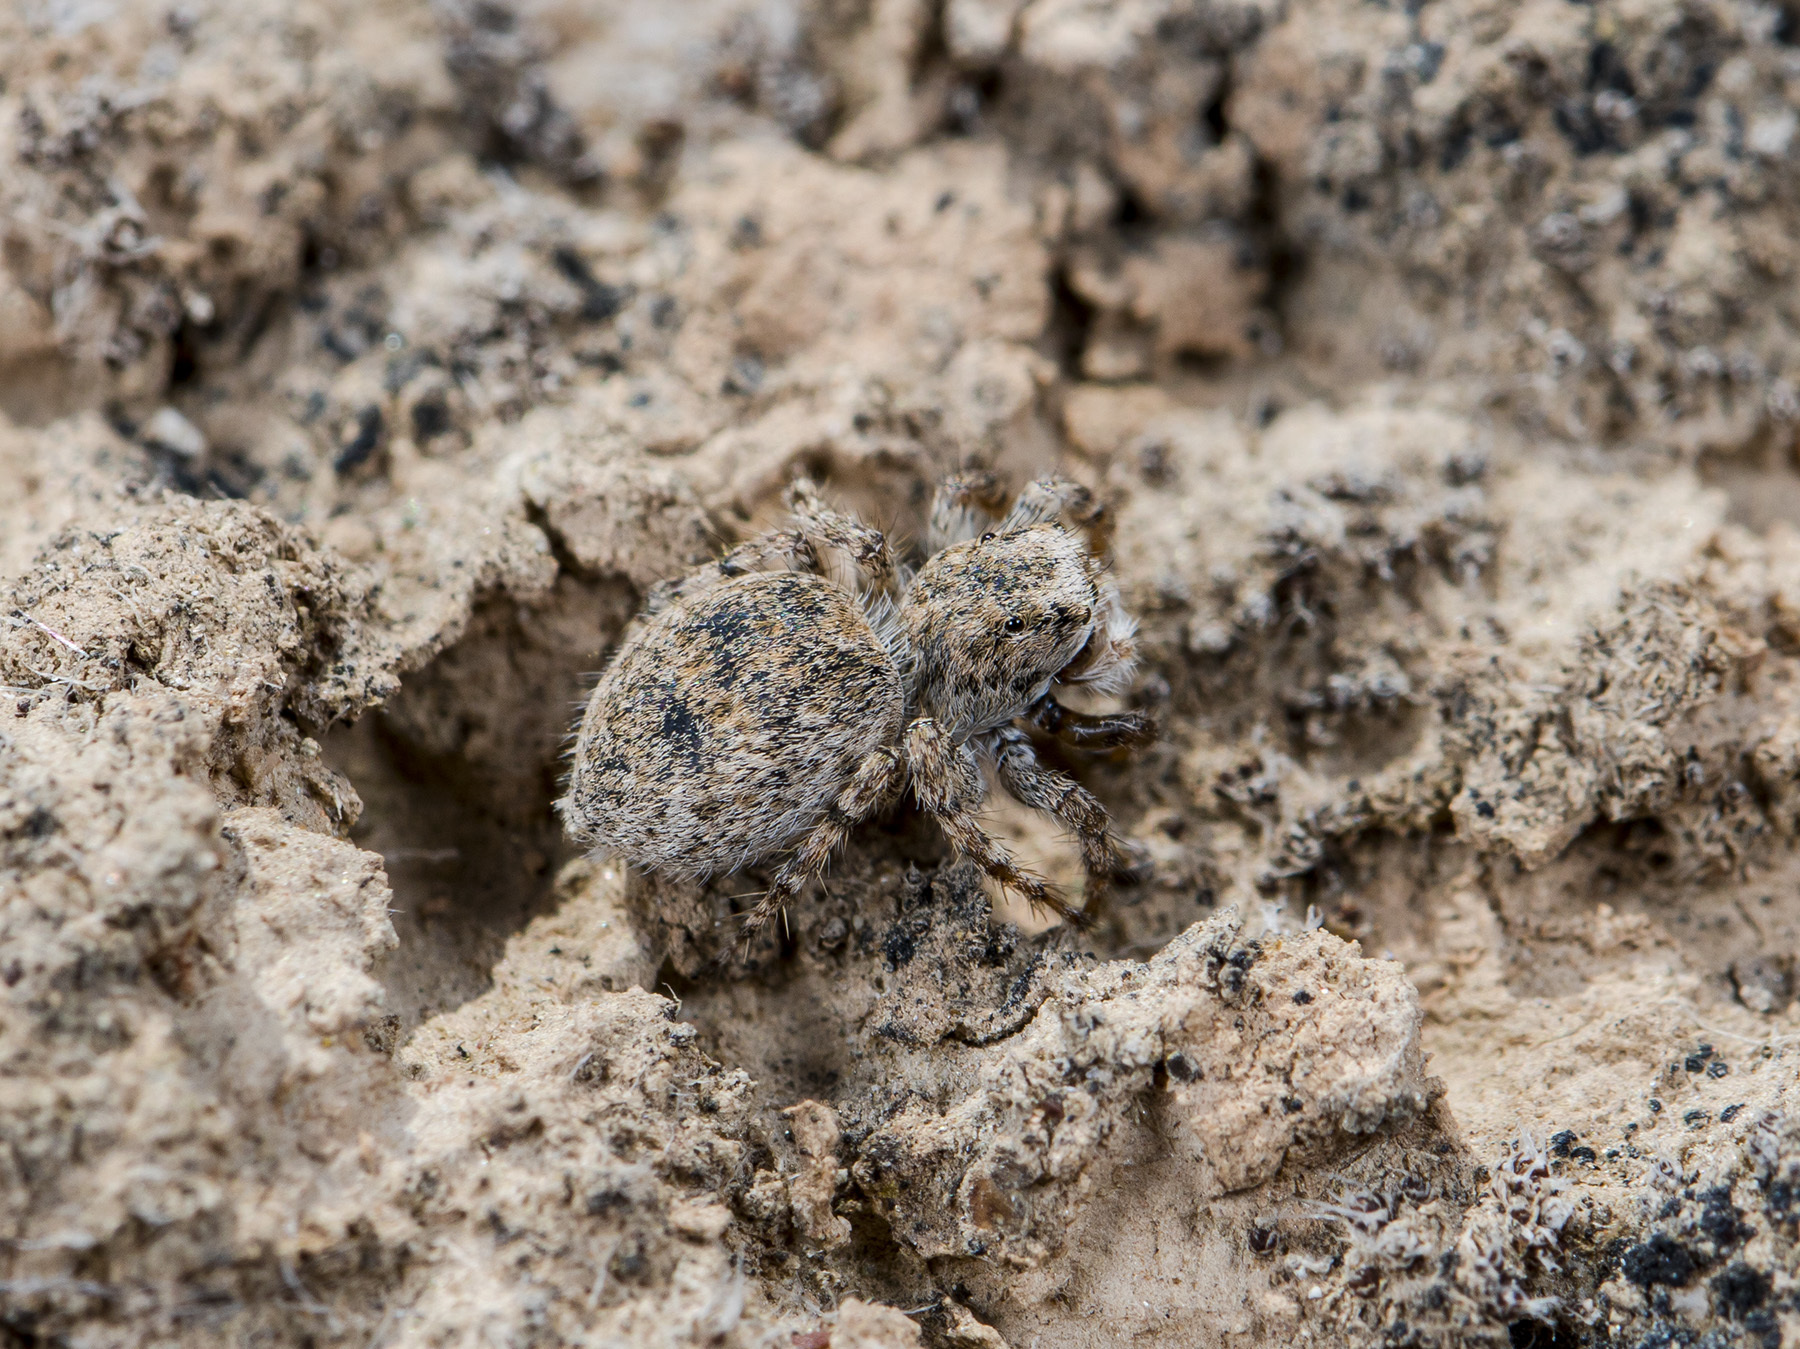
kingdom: Animalia
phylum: Arthropoda
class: Arachnida
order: Araneae
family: Salticidae
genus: Aelurillus
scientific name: Aelurillus dubatolovi
